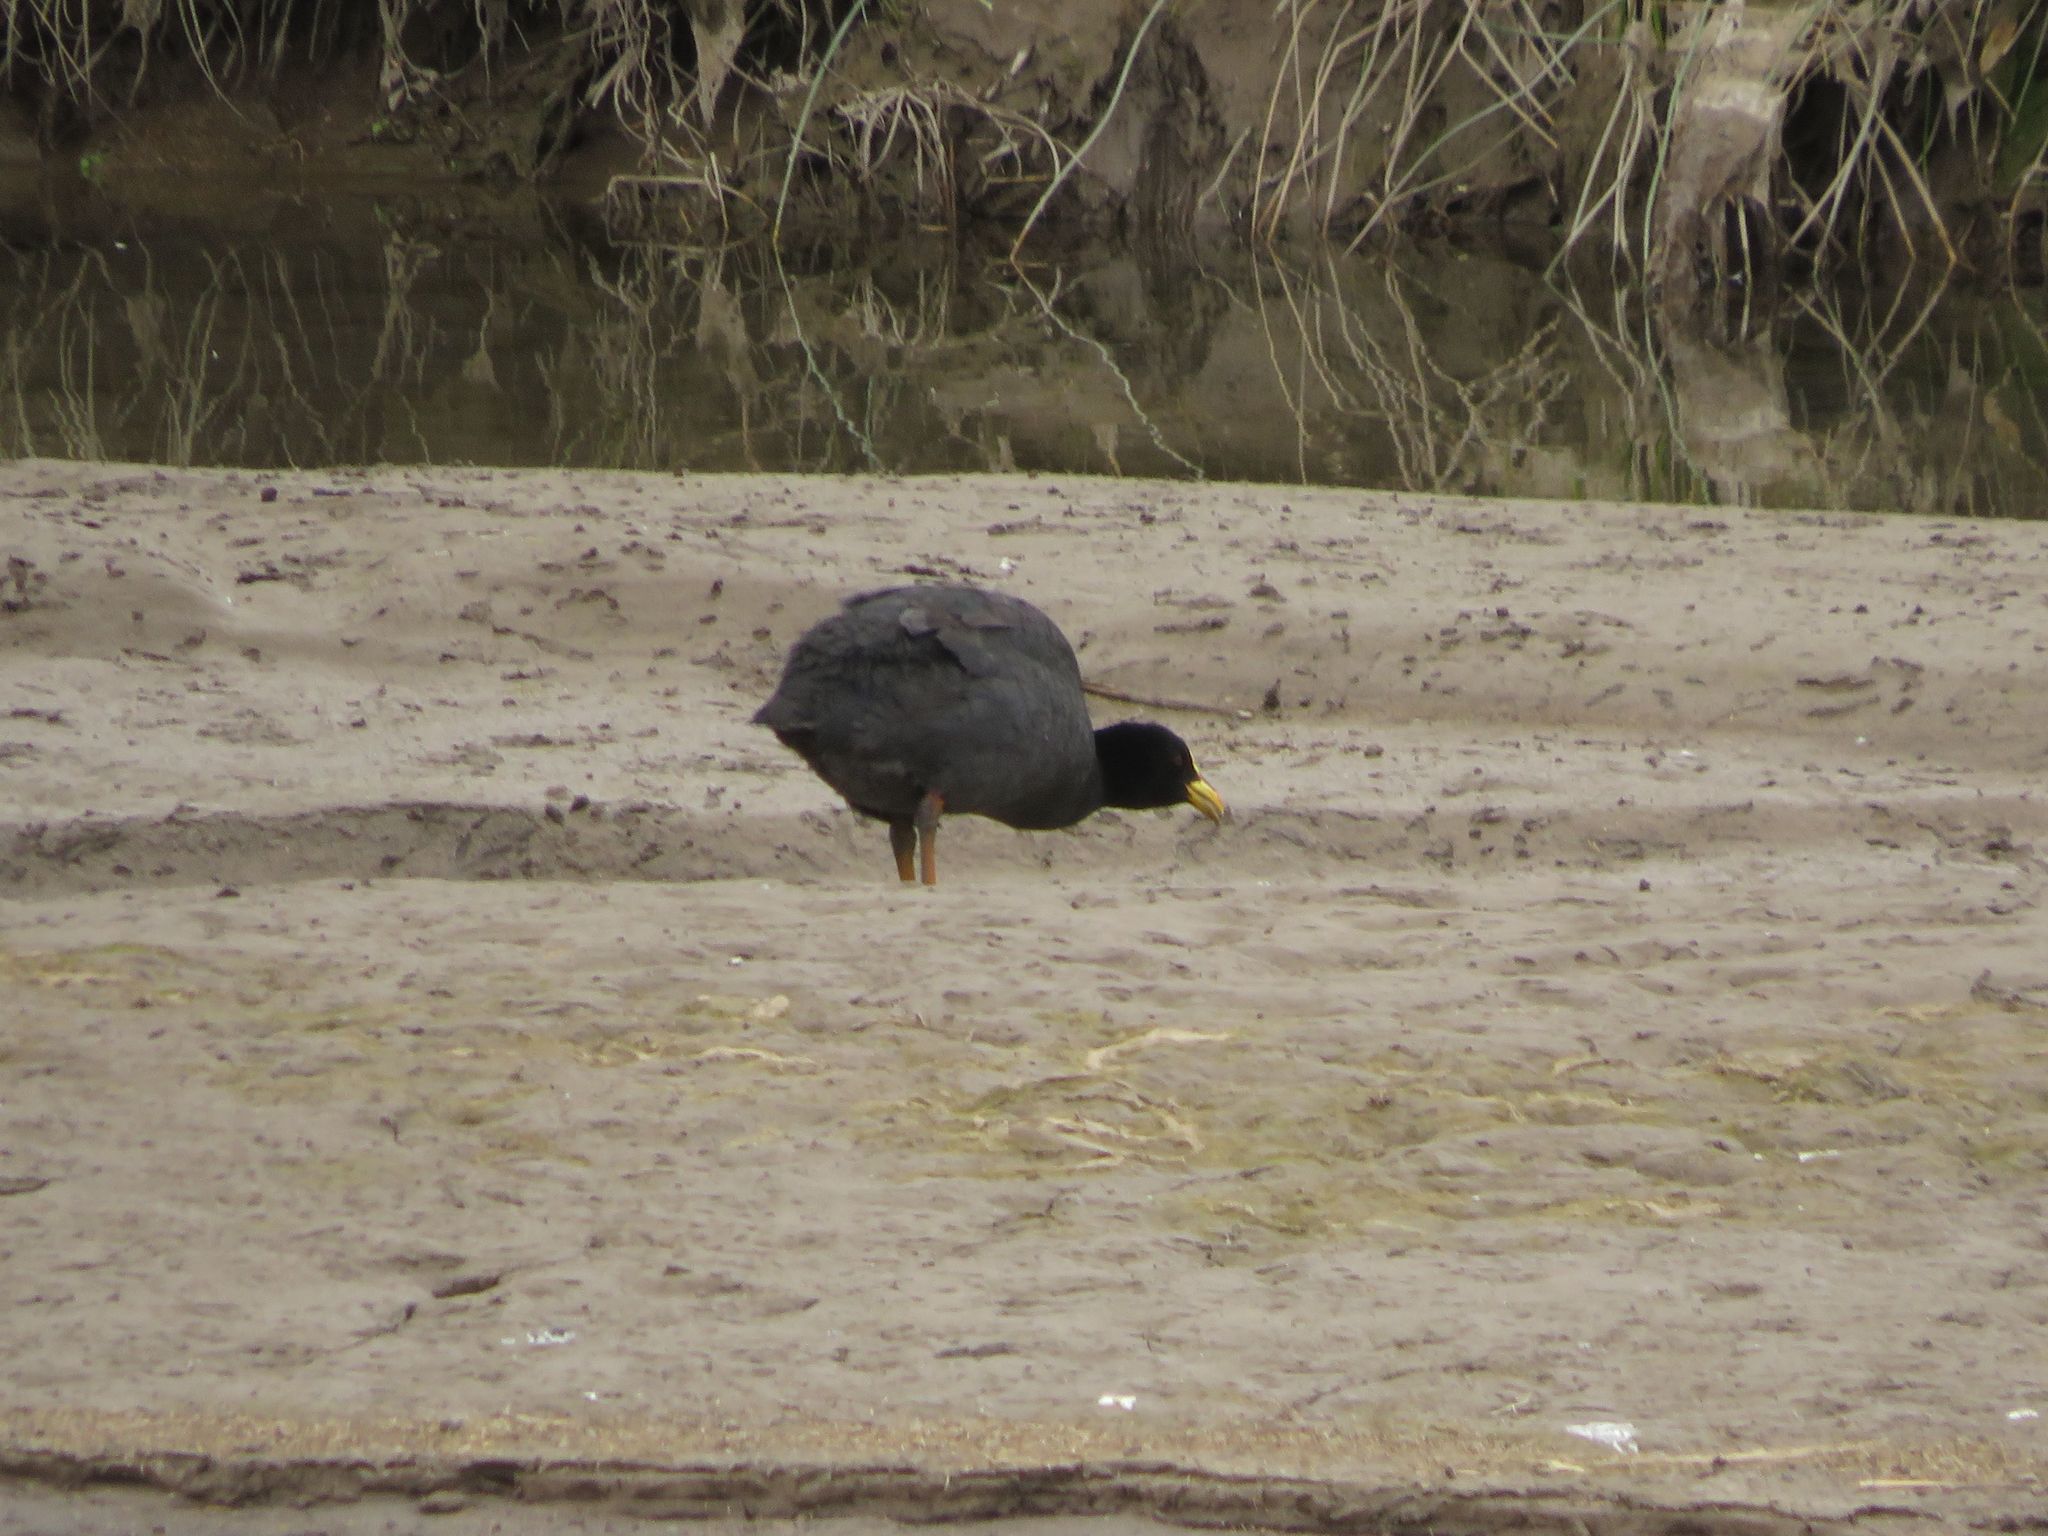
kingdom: Animalia
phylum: Chordata
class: Aves
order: Gruiformes
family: Rallidae
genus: Fulica
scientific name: Fulica armillata
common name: Red-gartered coot
